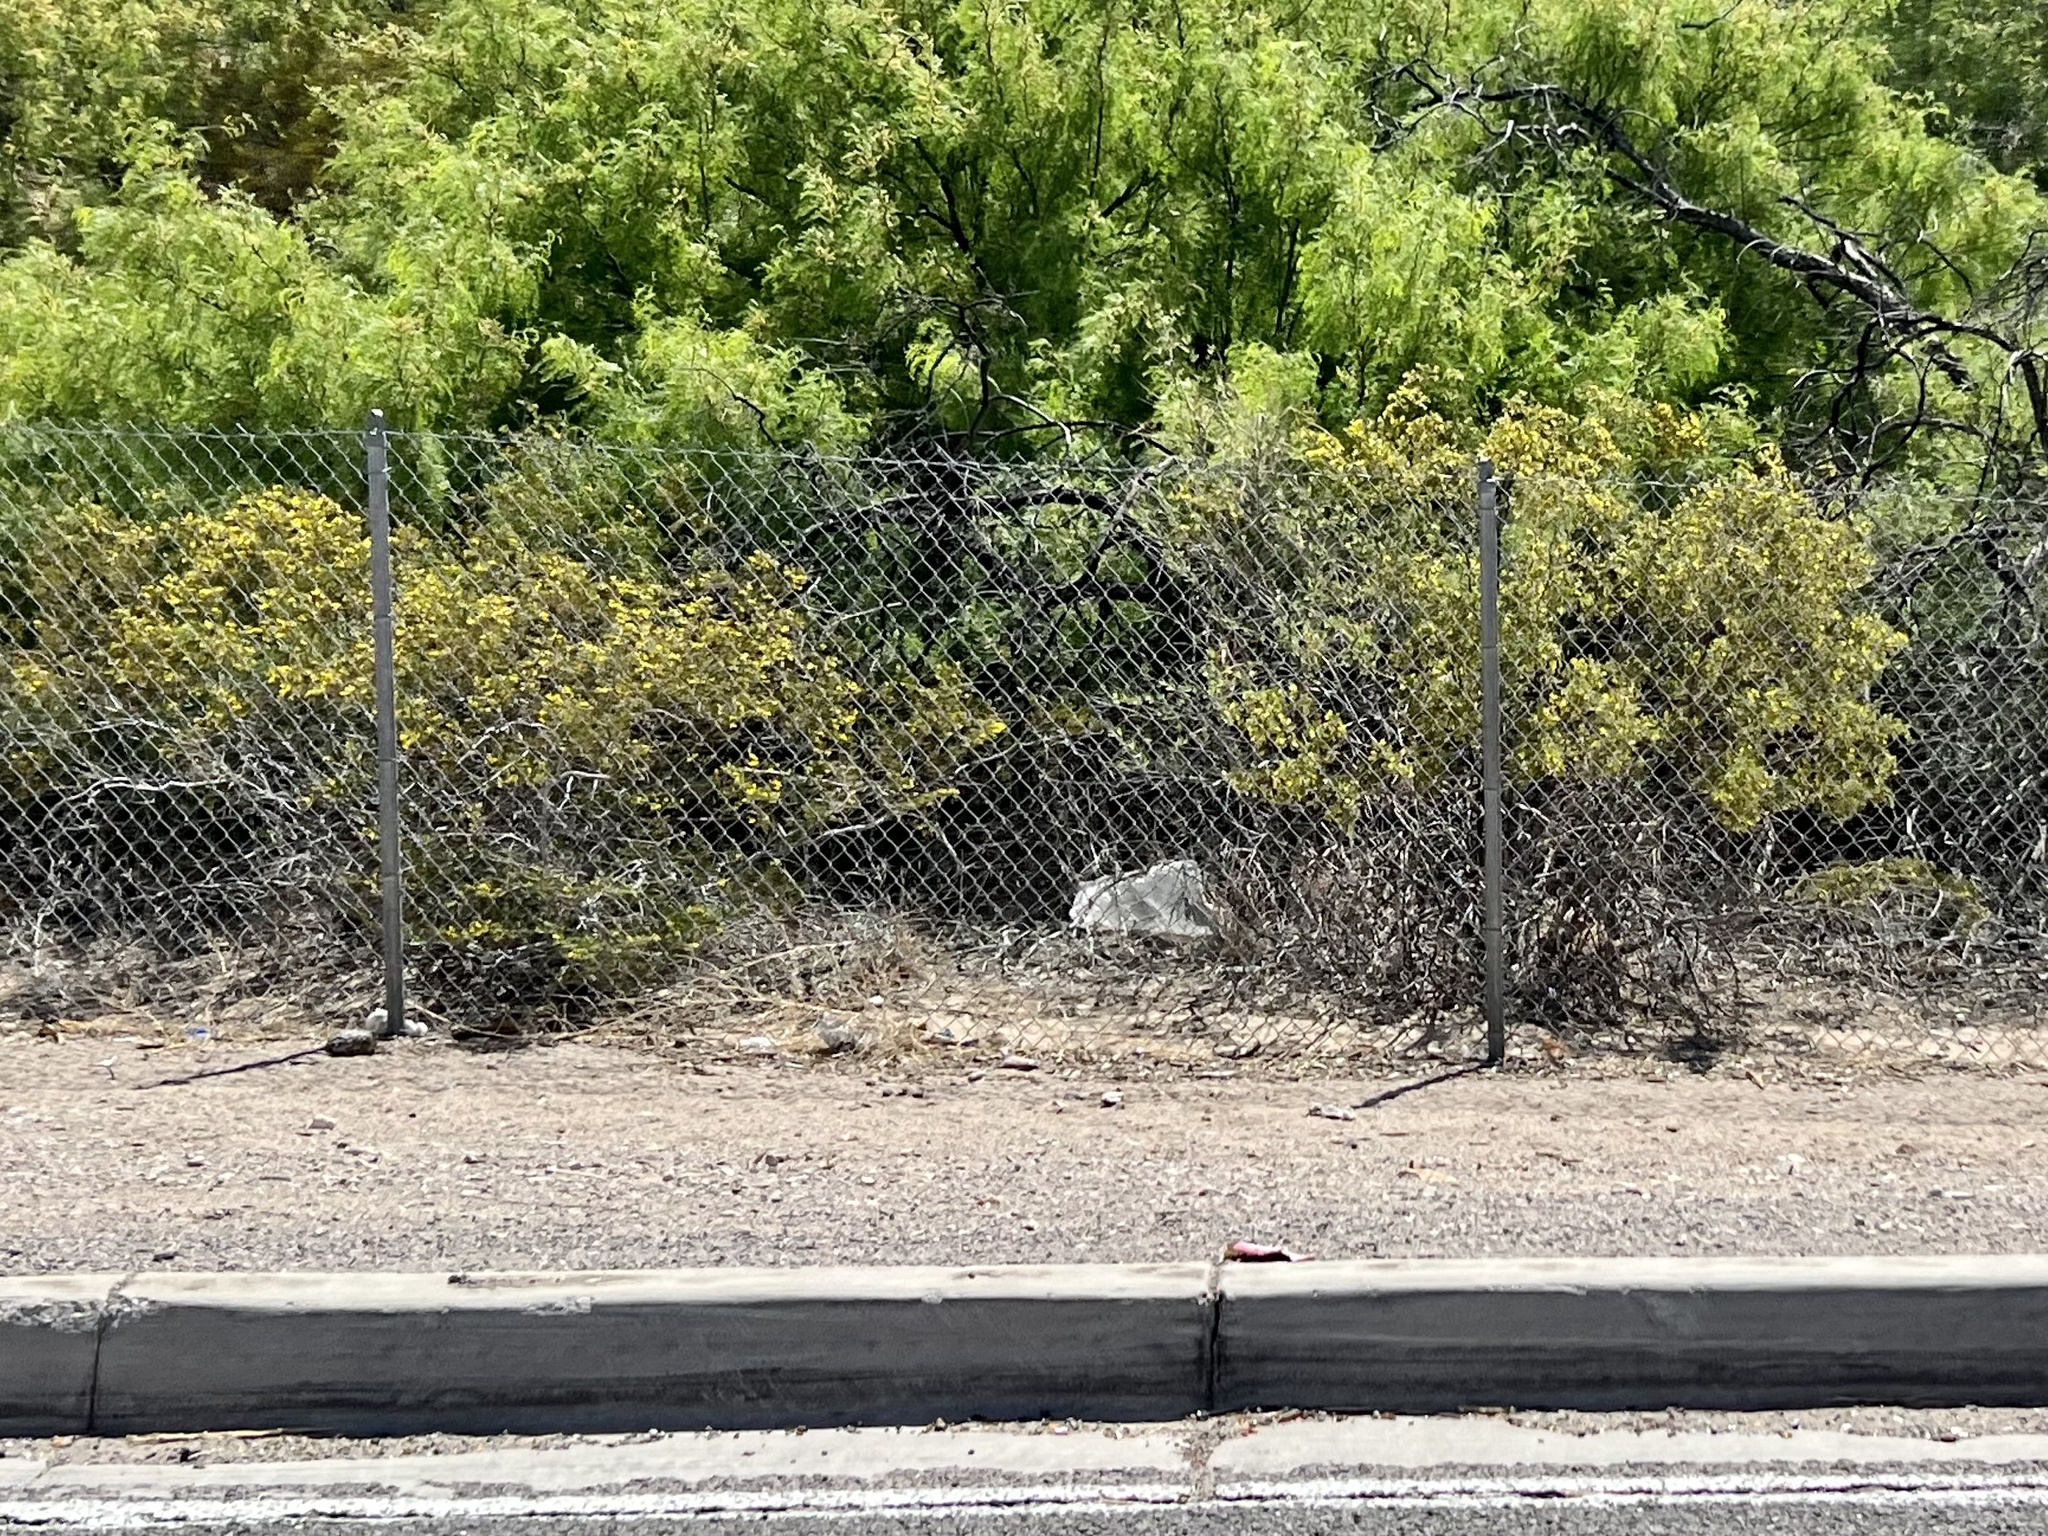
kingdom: Plantae
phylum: Tracheophyta
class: Magnoliopsida
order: Zygophyllales
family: Zygophyllaceae
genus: Larrea
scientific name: Larrea tridentata
